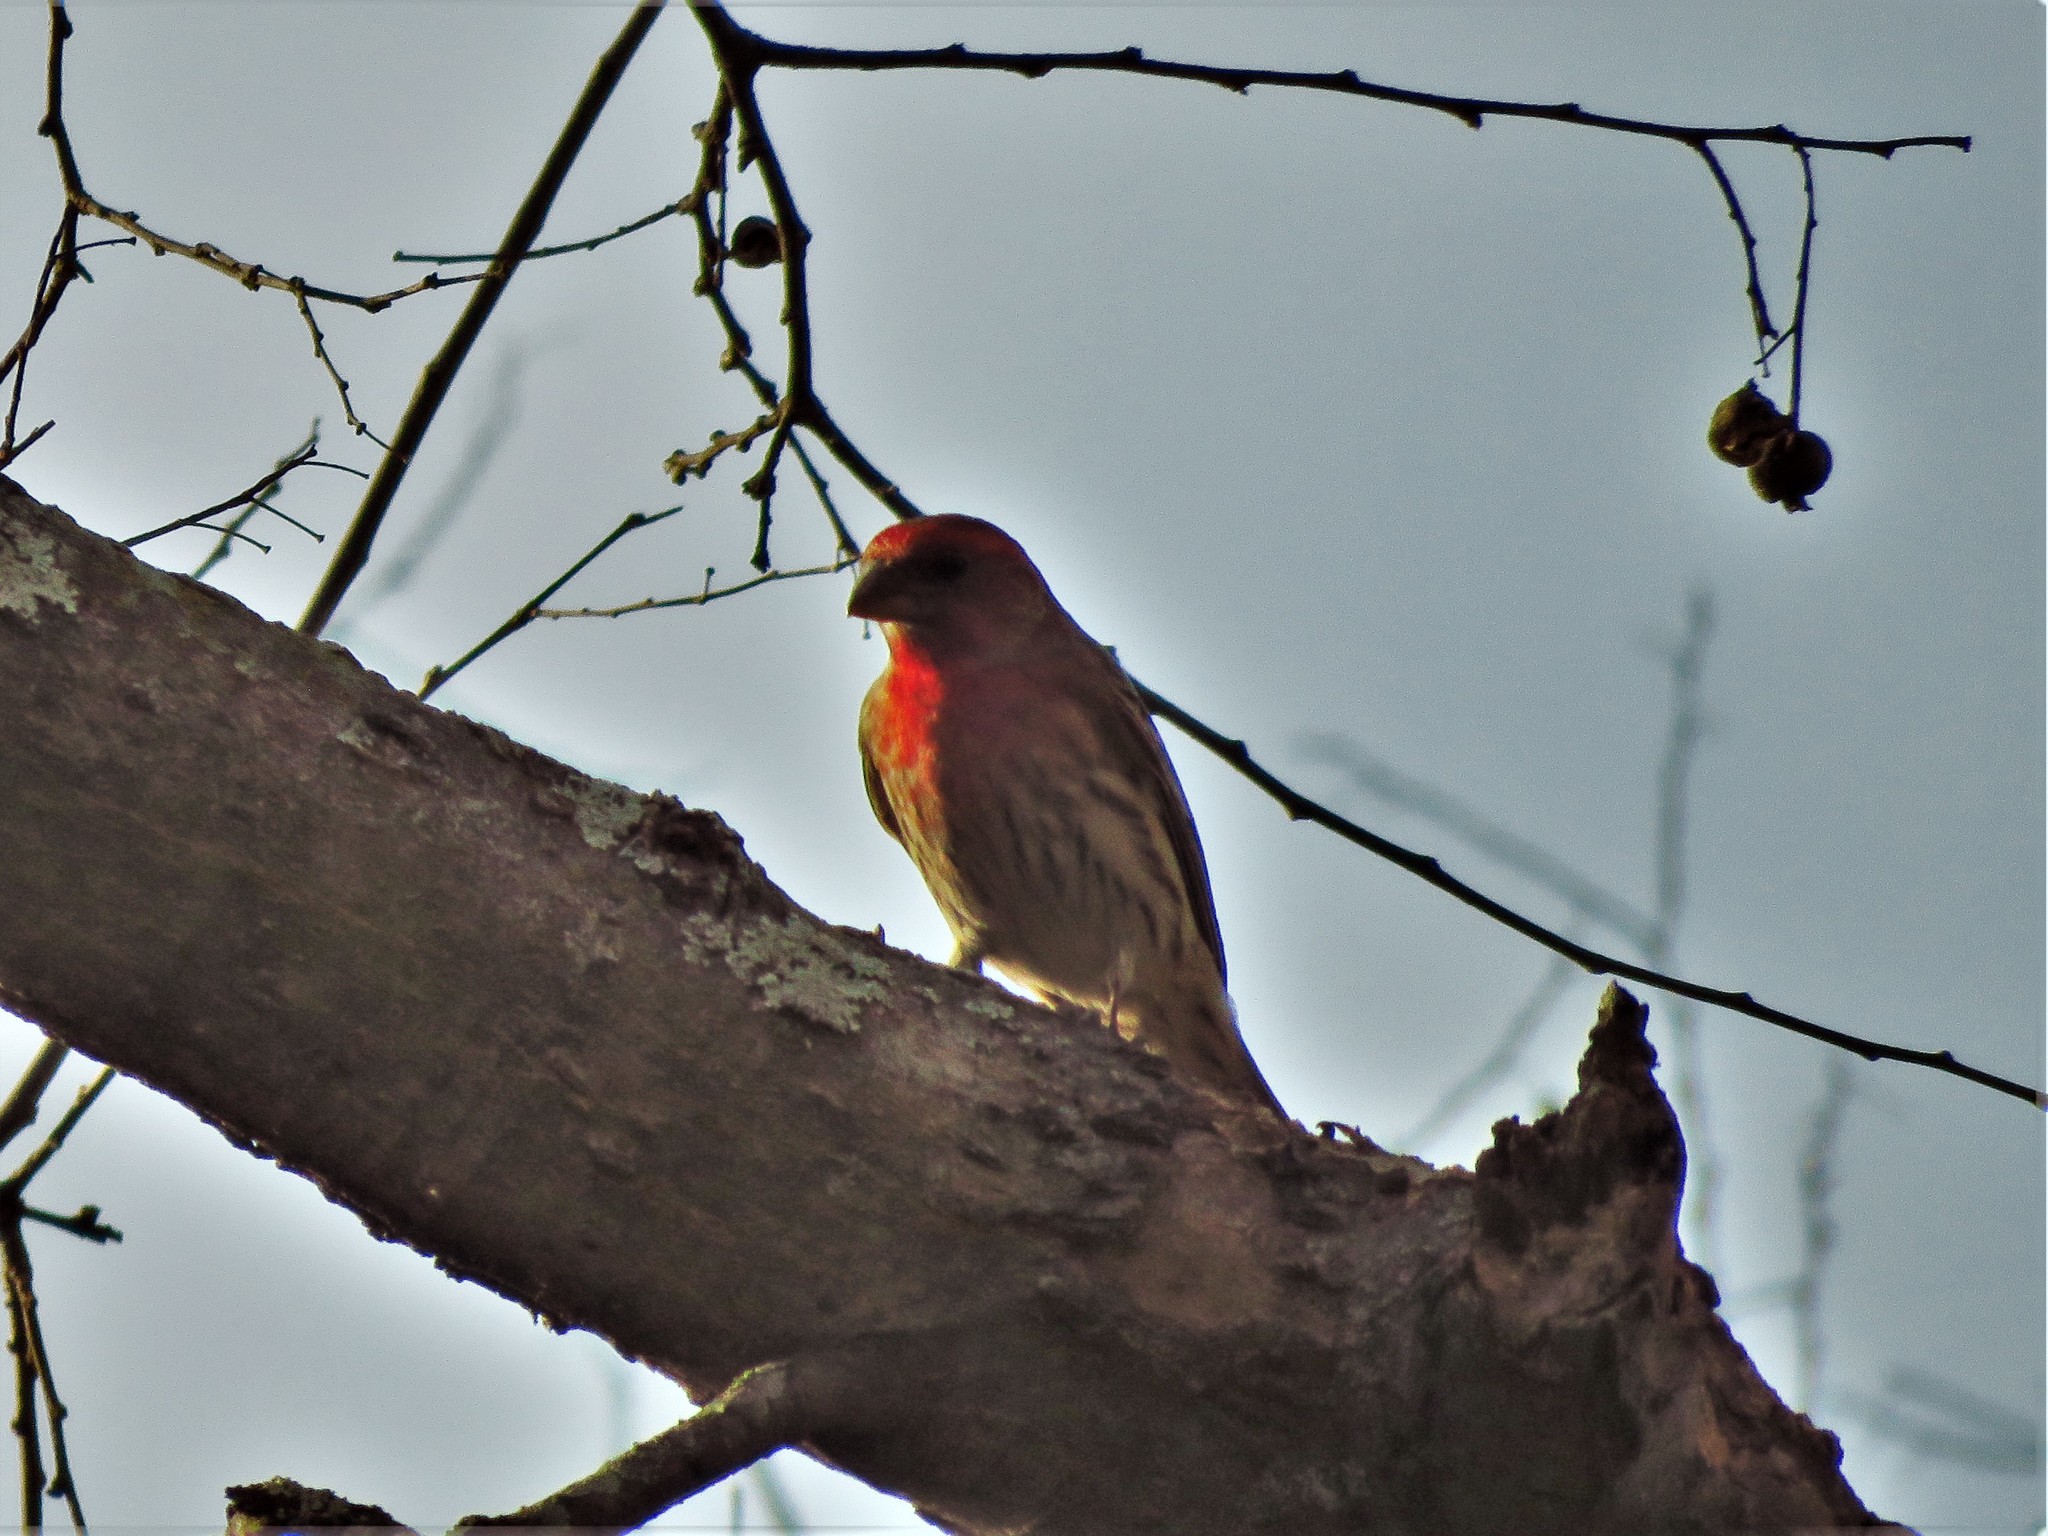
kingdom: Animalia
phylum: Chordata
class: Aves
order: Passeriformes
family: Fringillidae
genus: Haemorhous
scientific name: Haemorhous mexicanus
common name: House finch
